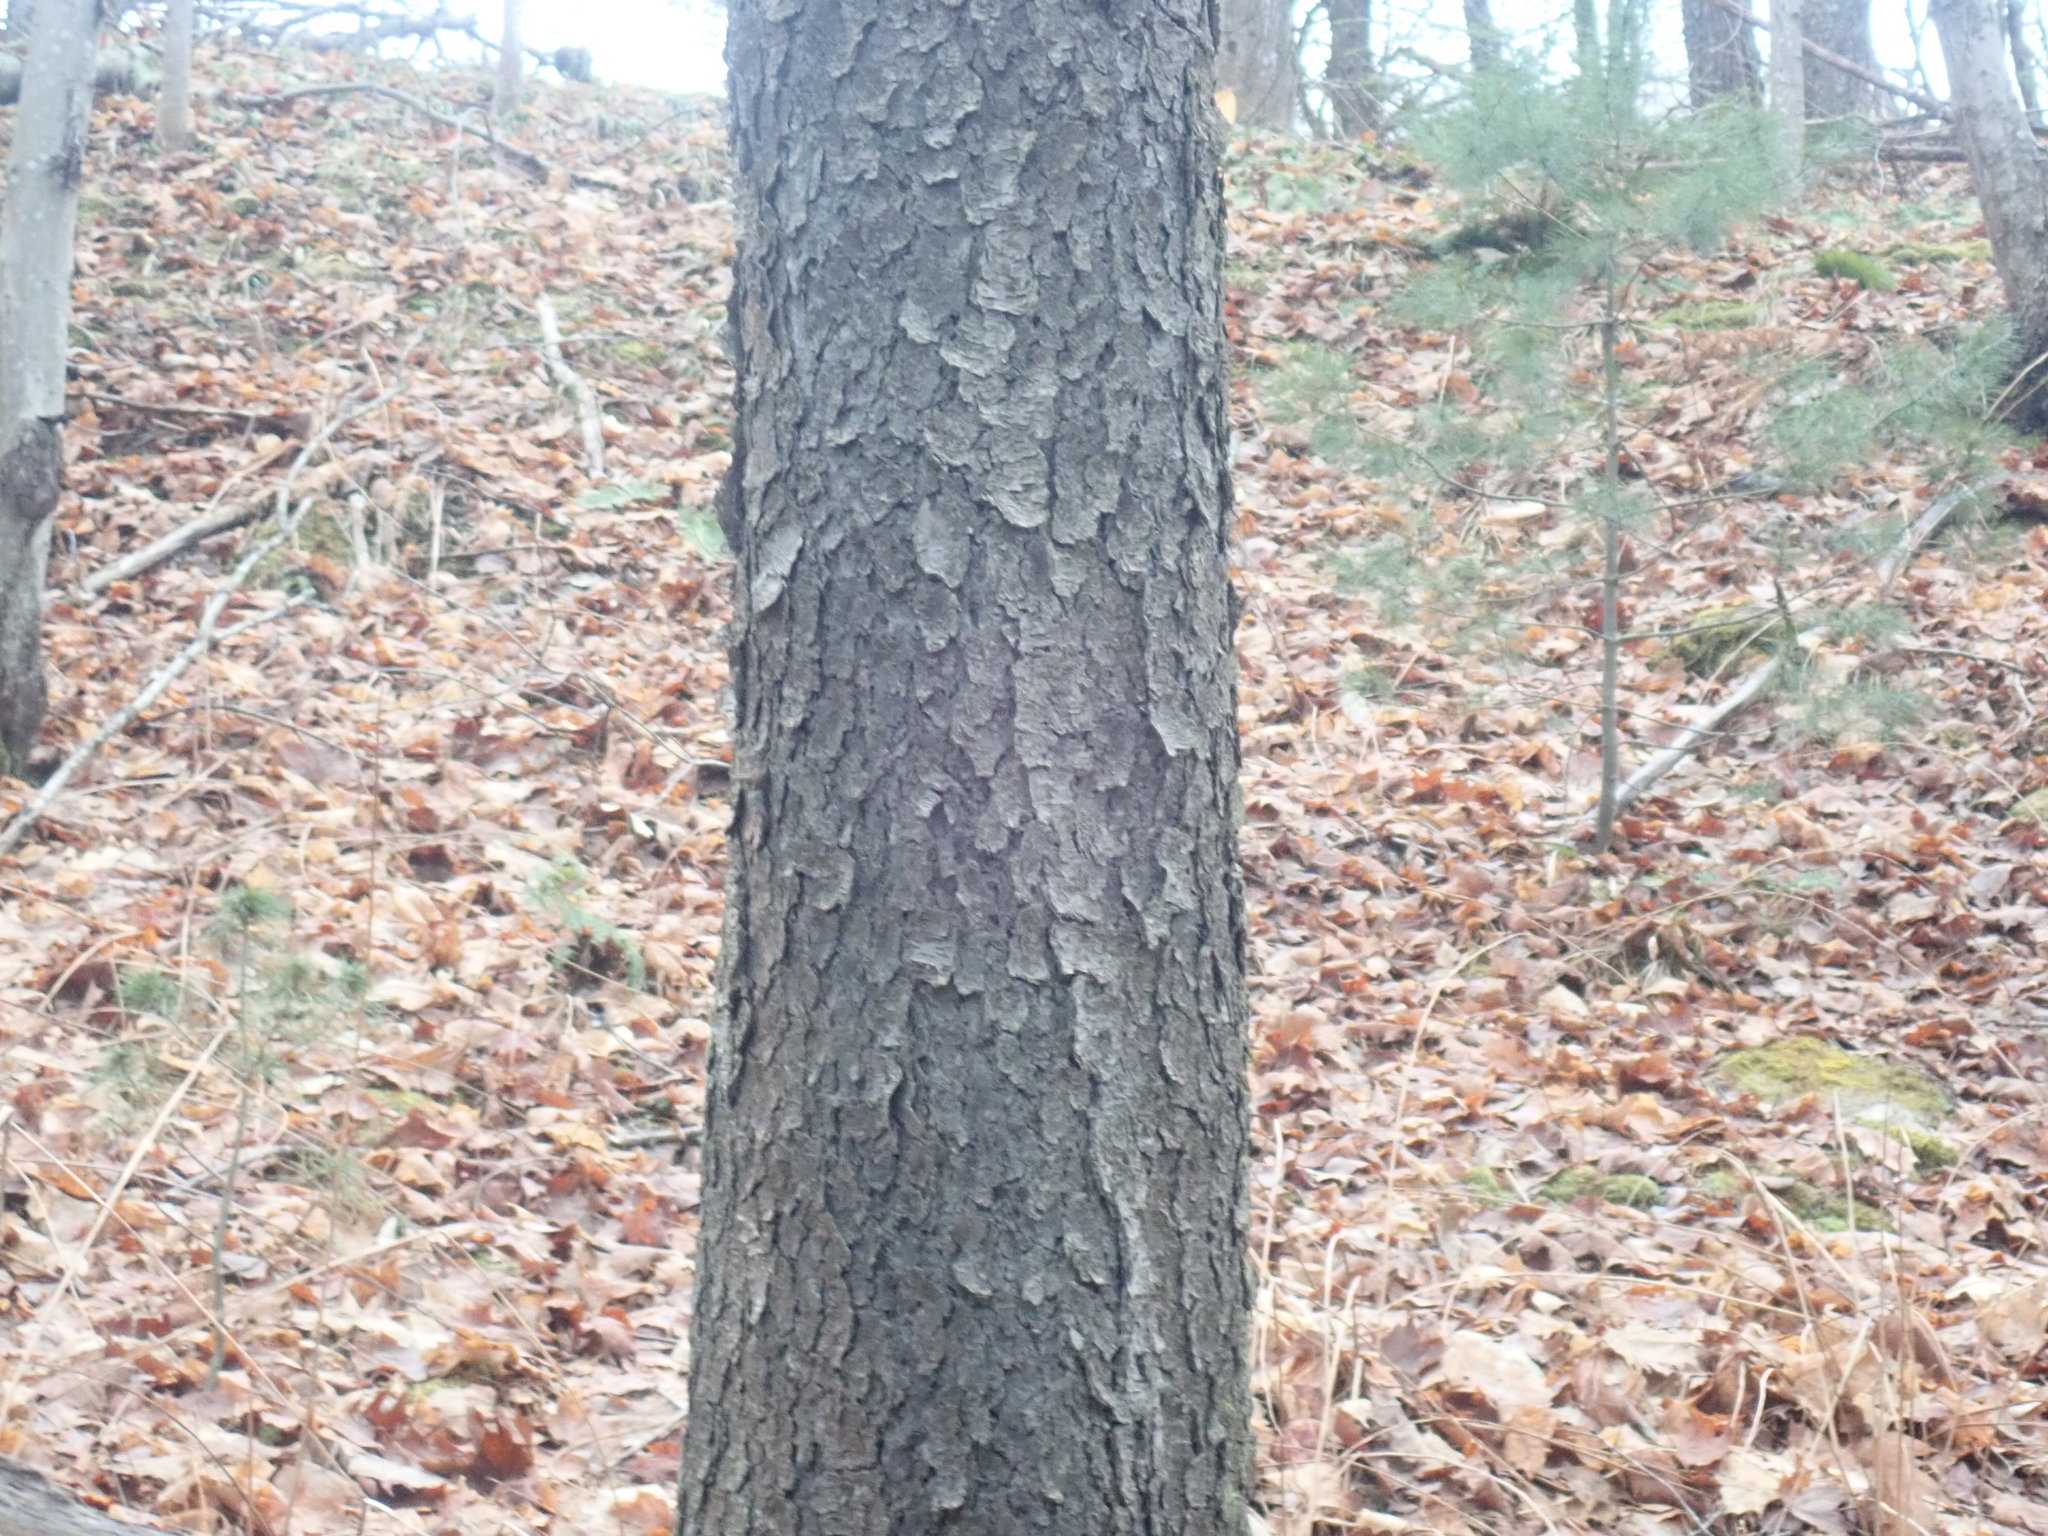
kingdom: Plantae
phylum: Tracheophyta
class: Magnoliopsida
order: Rosales
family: Rosaceae
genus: Prunus
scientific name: Prunus serotina
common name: Black cherry
